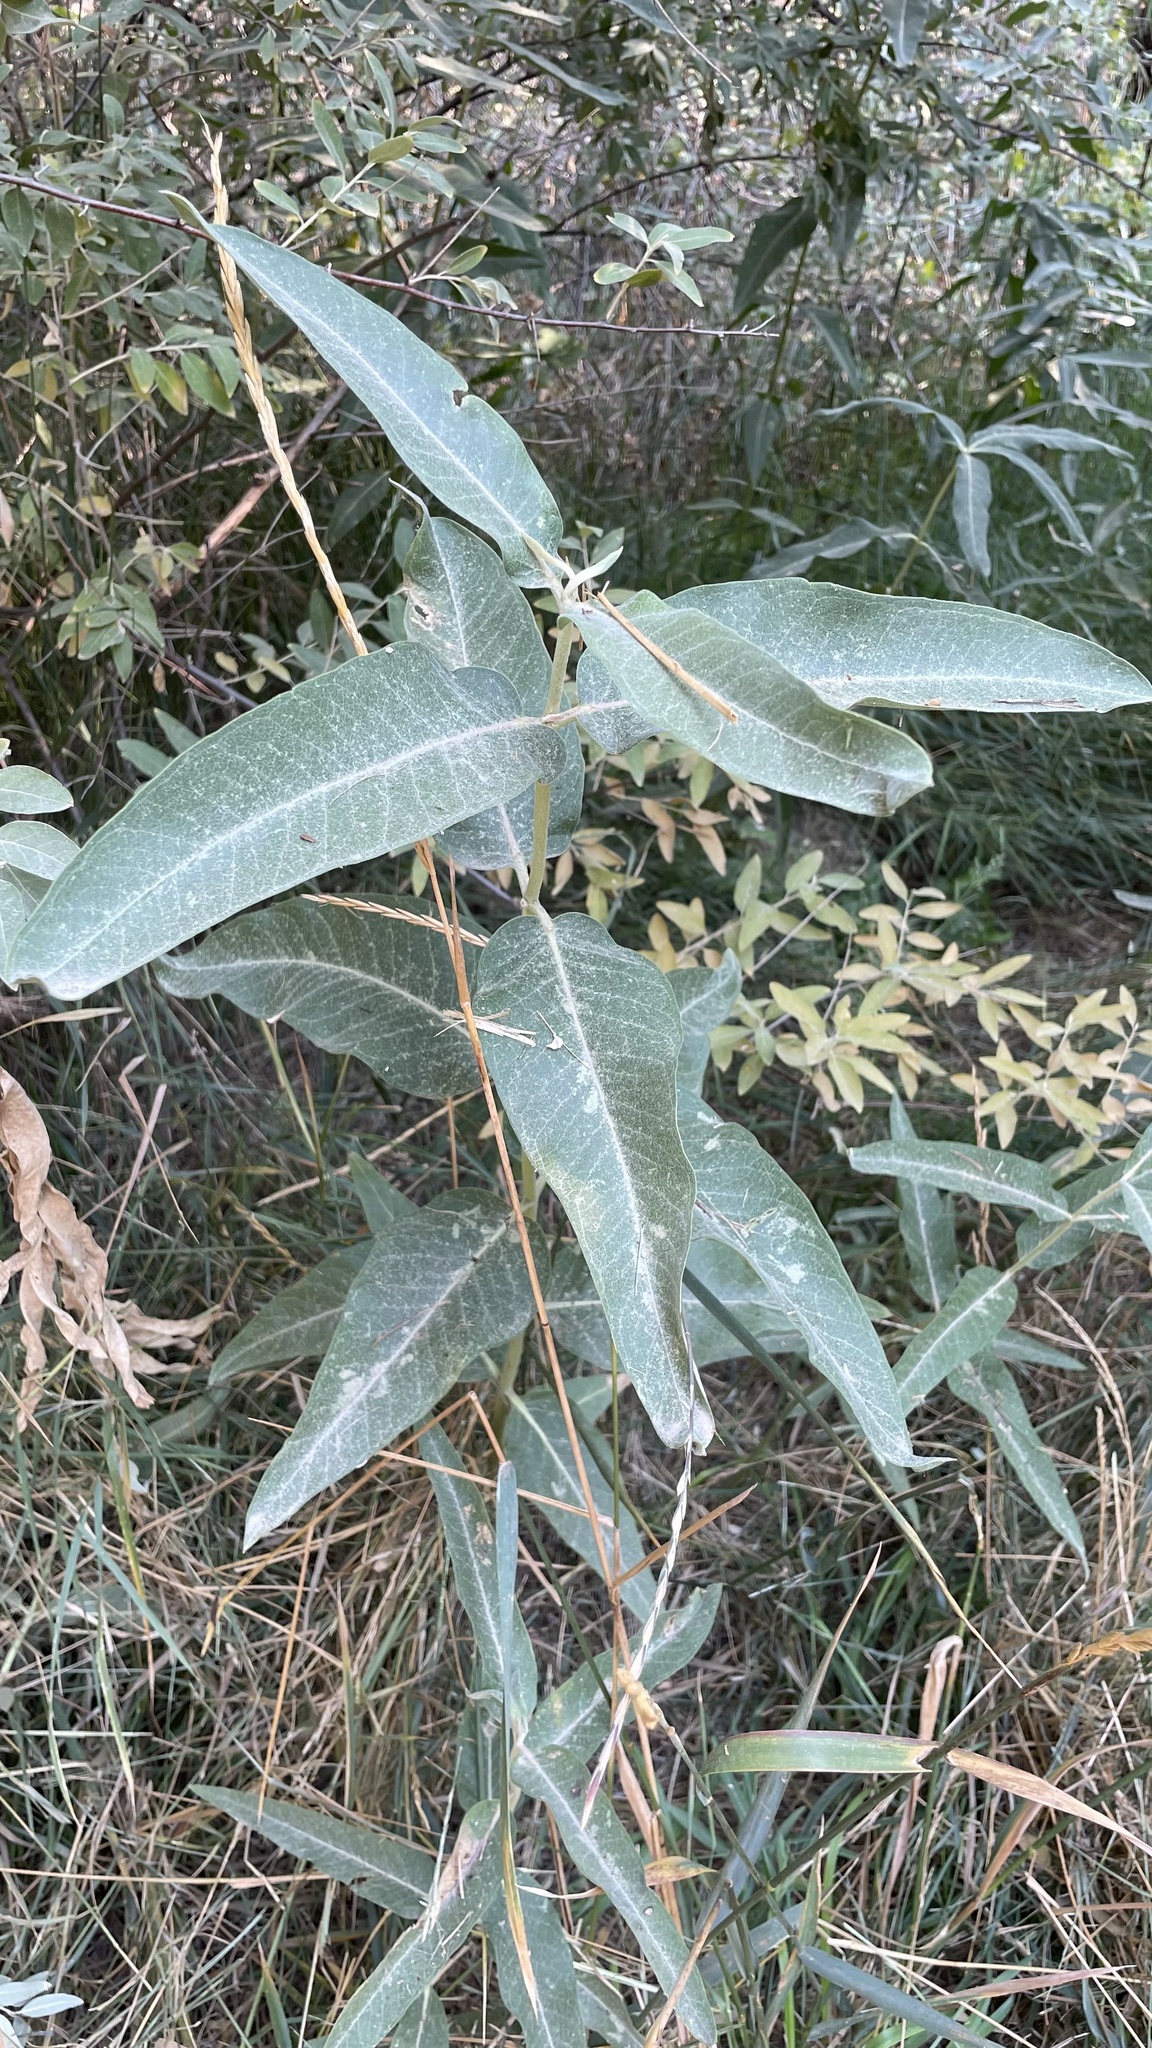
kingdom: Plantae
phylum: Tracheophyta
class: Magnoliopsida
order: Gentianales
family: Apocynaceae
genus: Asclepias
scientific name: Asclepias speciosa
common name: Showy milkweed
